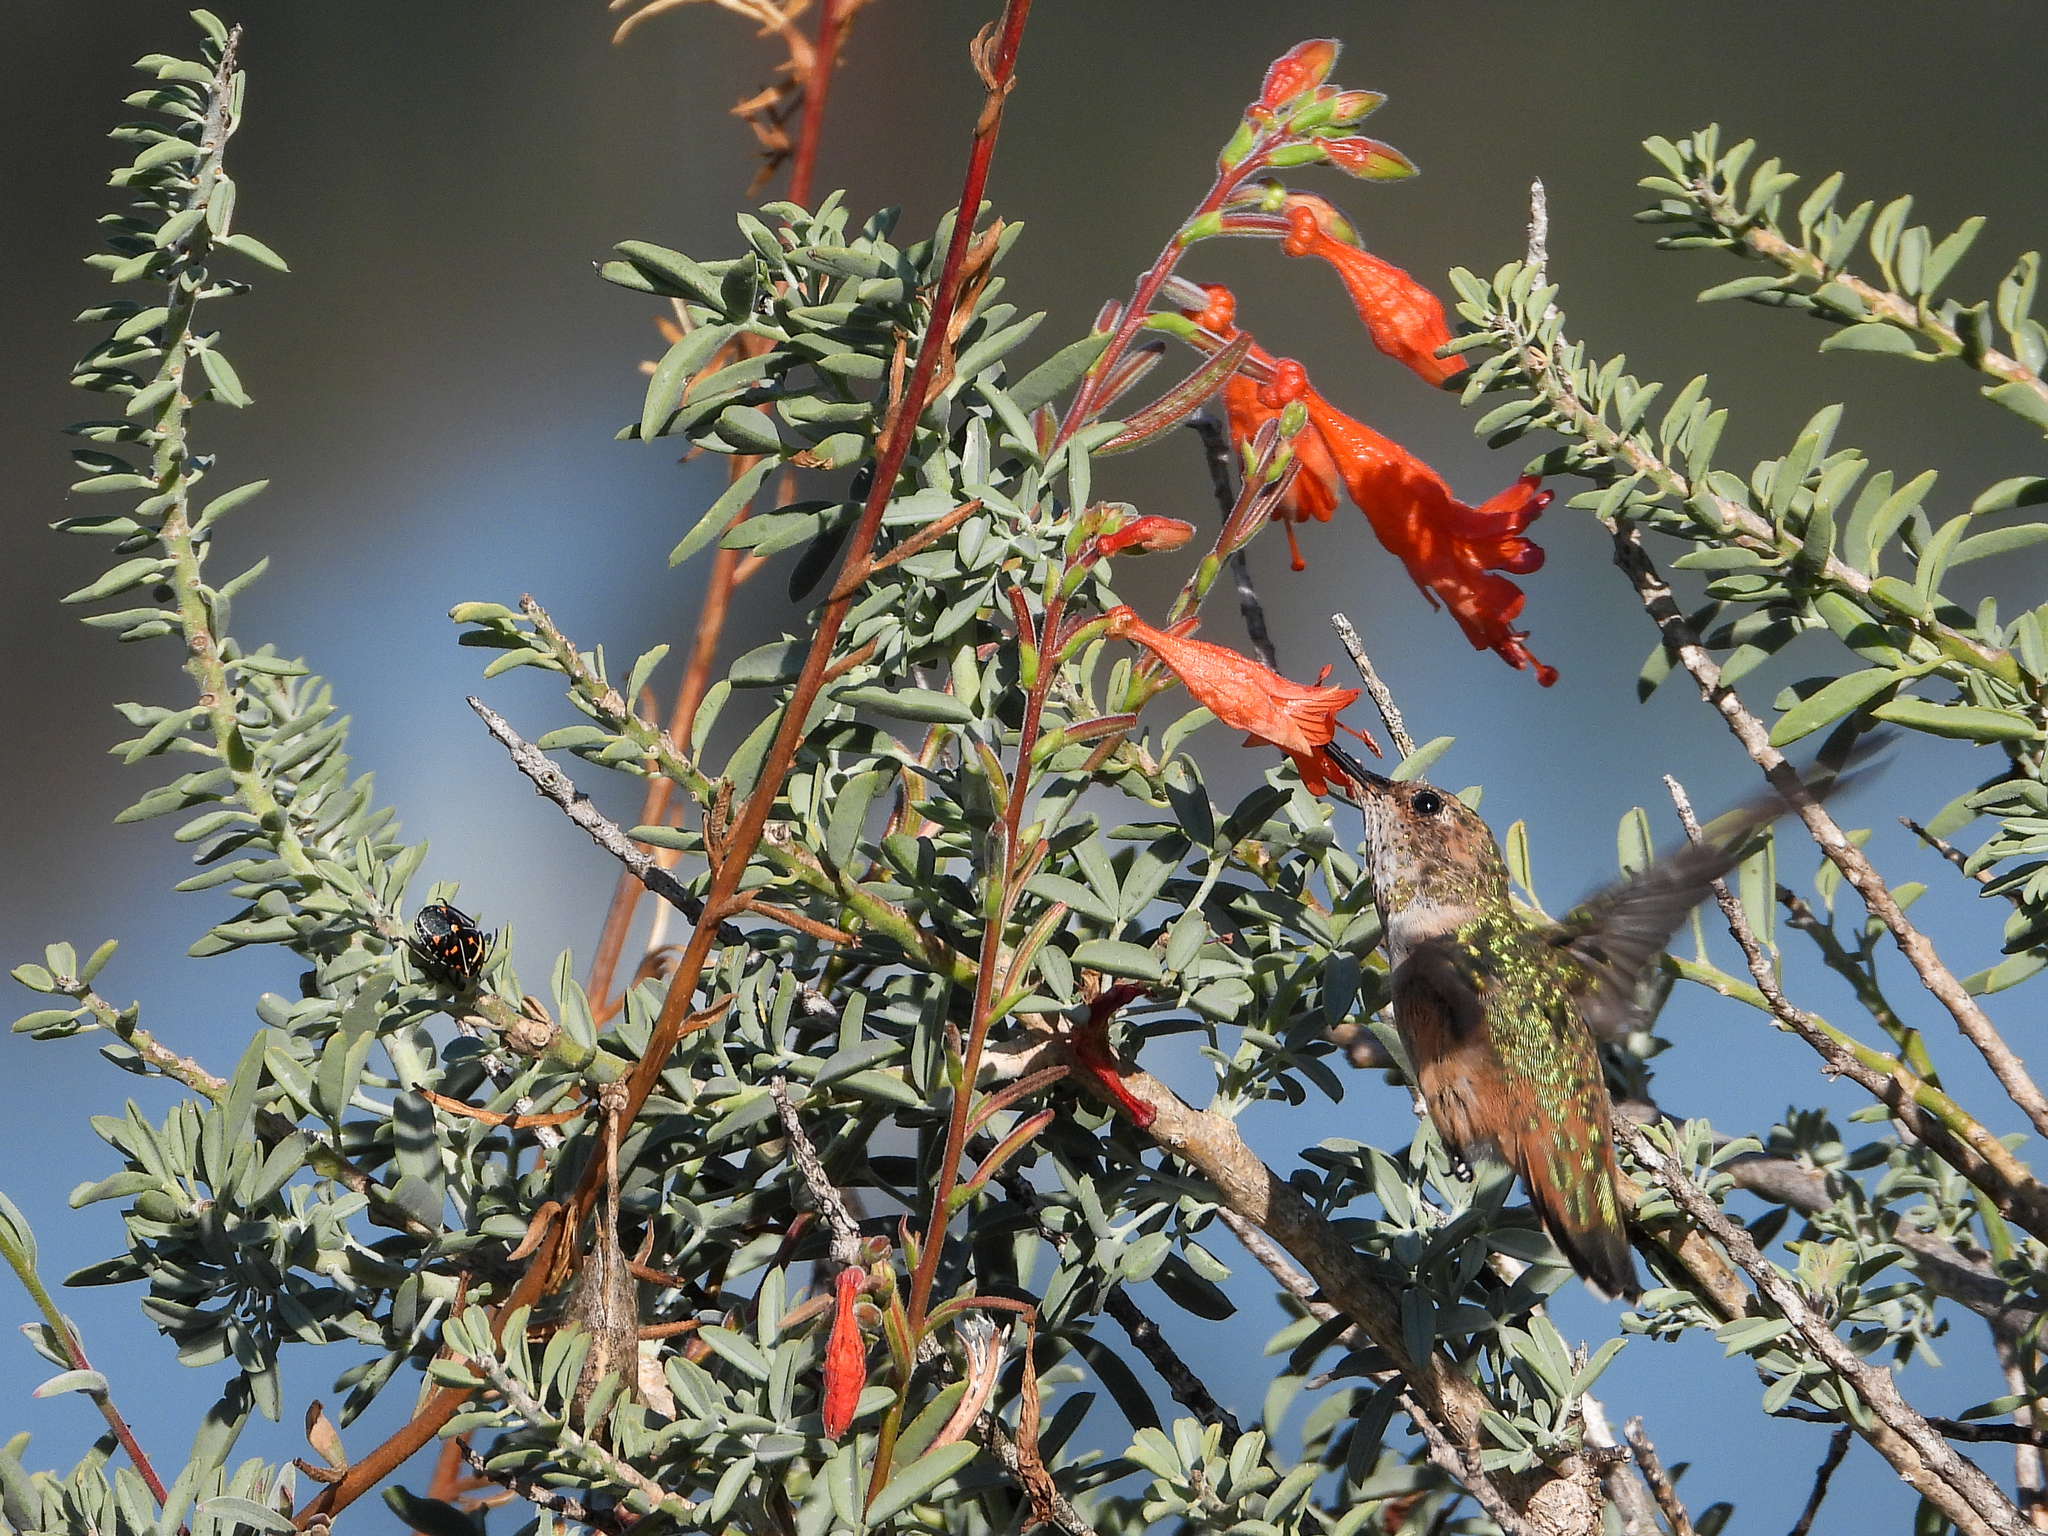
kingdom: Animalia
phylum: Chordata
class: Aves
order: Apodiformes
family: Trochilidae
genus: Selasphorus
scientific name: Selasphorus sasin
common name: Allen's hummingbird
